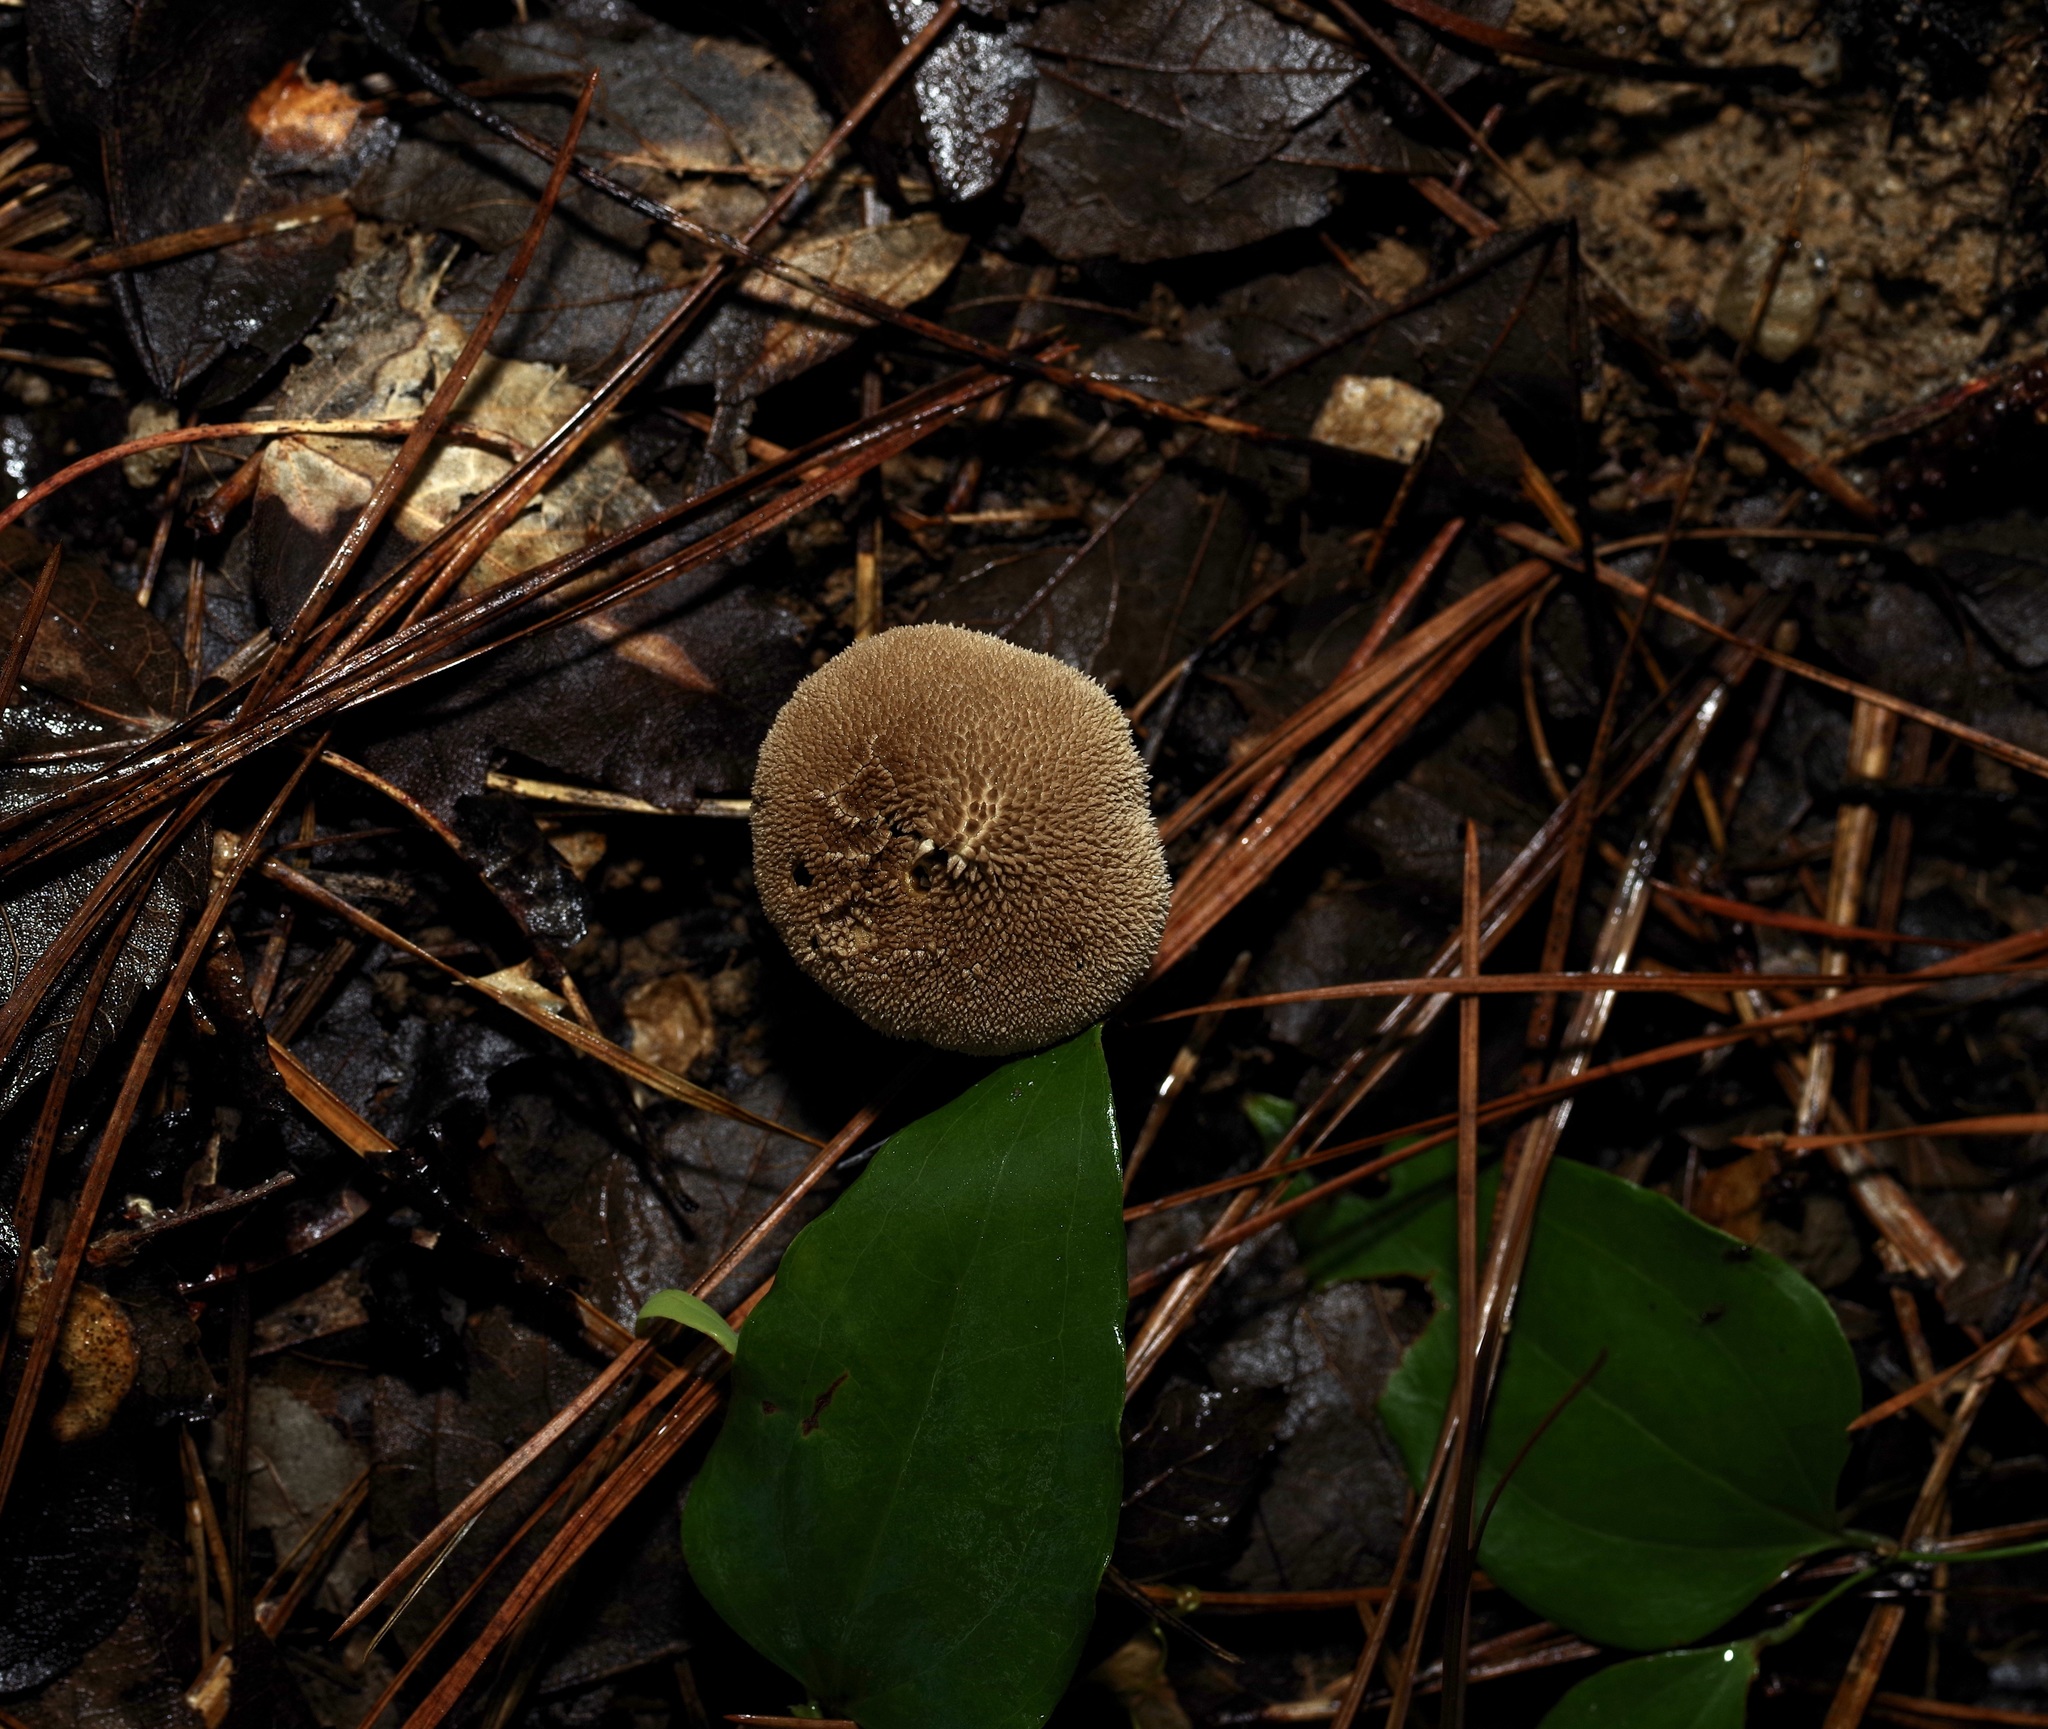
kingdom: Fungi
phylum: Basidiomycota
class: Agaricomycetes
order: Agaricales
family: Agaricaceae
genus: Lycoperdon
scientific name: Lycoperdon marginatum
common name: Peeling puffball
